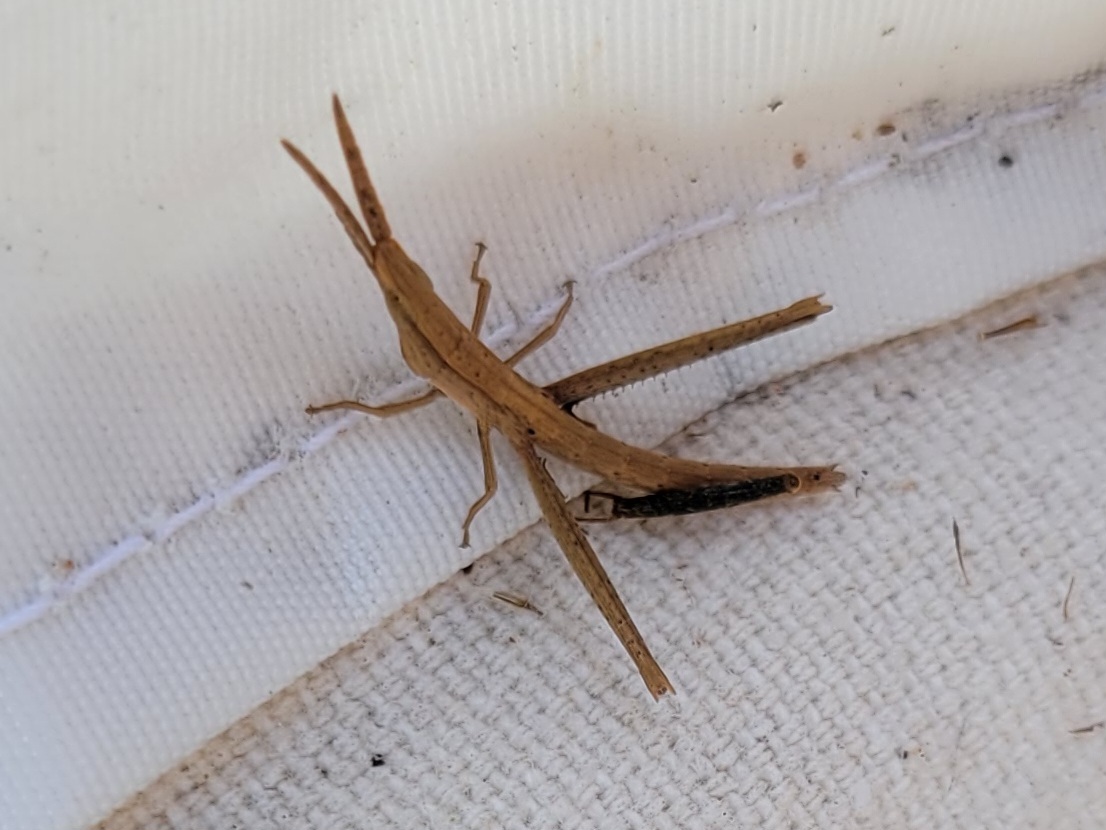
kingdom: Animalia
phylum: Arthropoda
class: Insecta
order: Orthoptera
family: Acrididae
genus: Achurum
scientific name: Achurum carinatum
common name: Long-headed toothpick grasshopper
